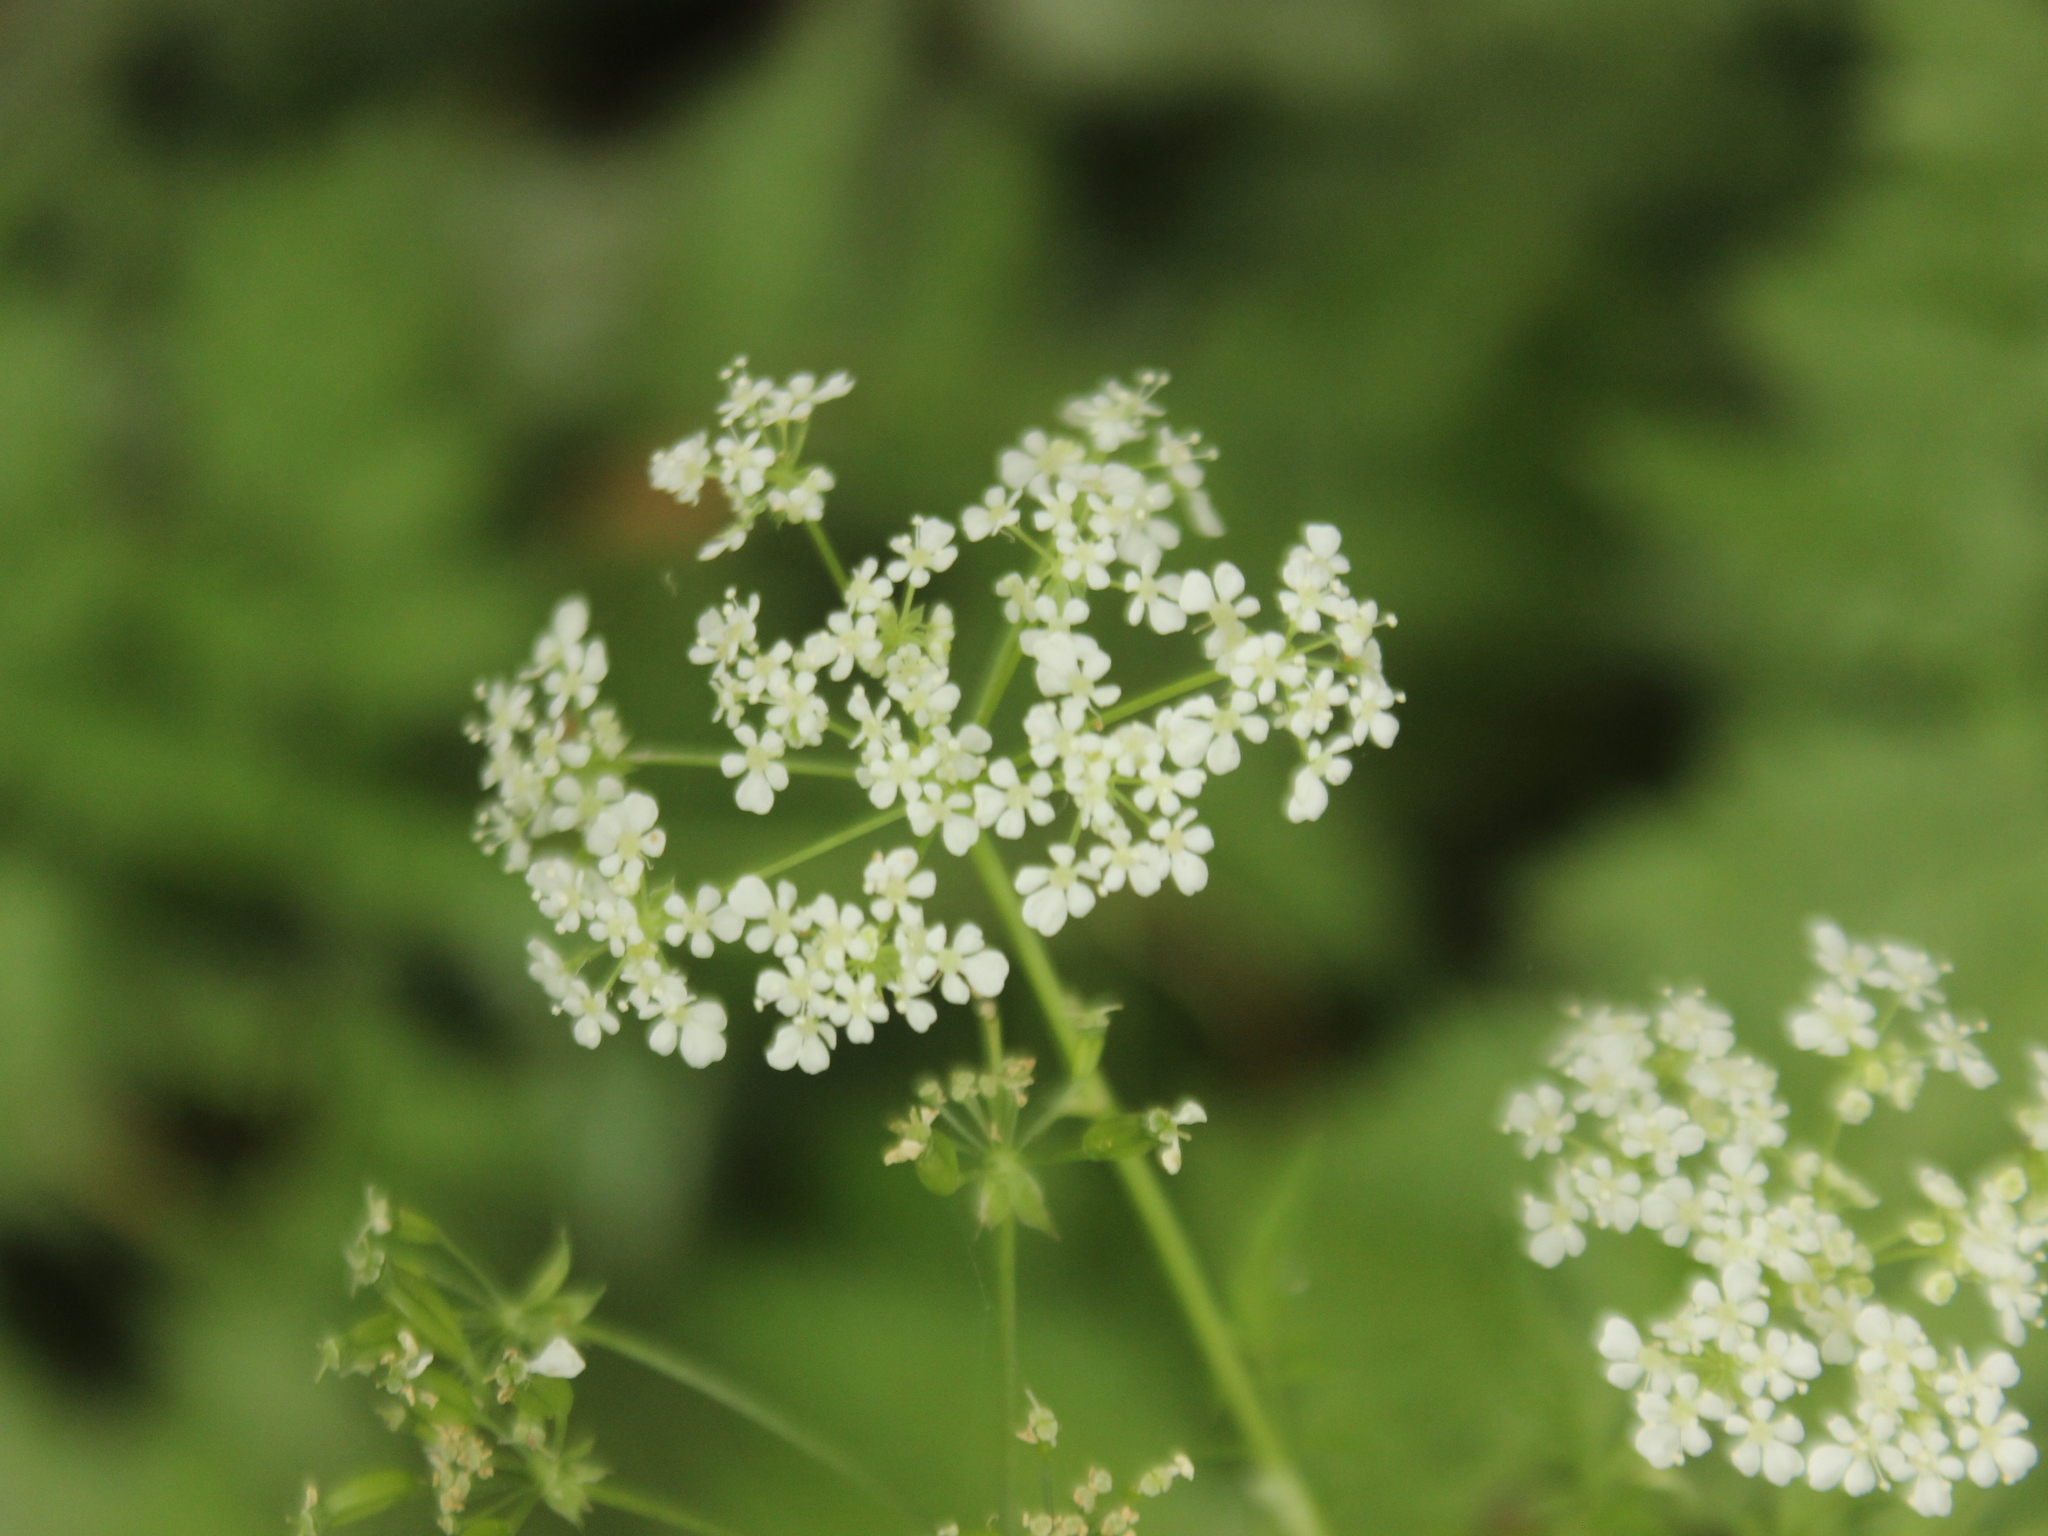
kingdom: Plantae
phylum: Tracheophyta
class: Magnoliopsida
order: Apiales
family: Apiaceae
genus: Anthriscus
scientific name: Anthriscus sylvestris
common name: Cow parsley
